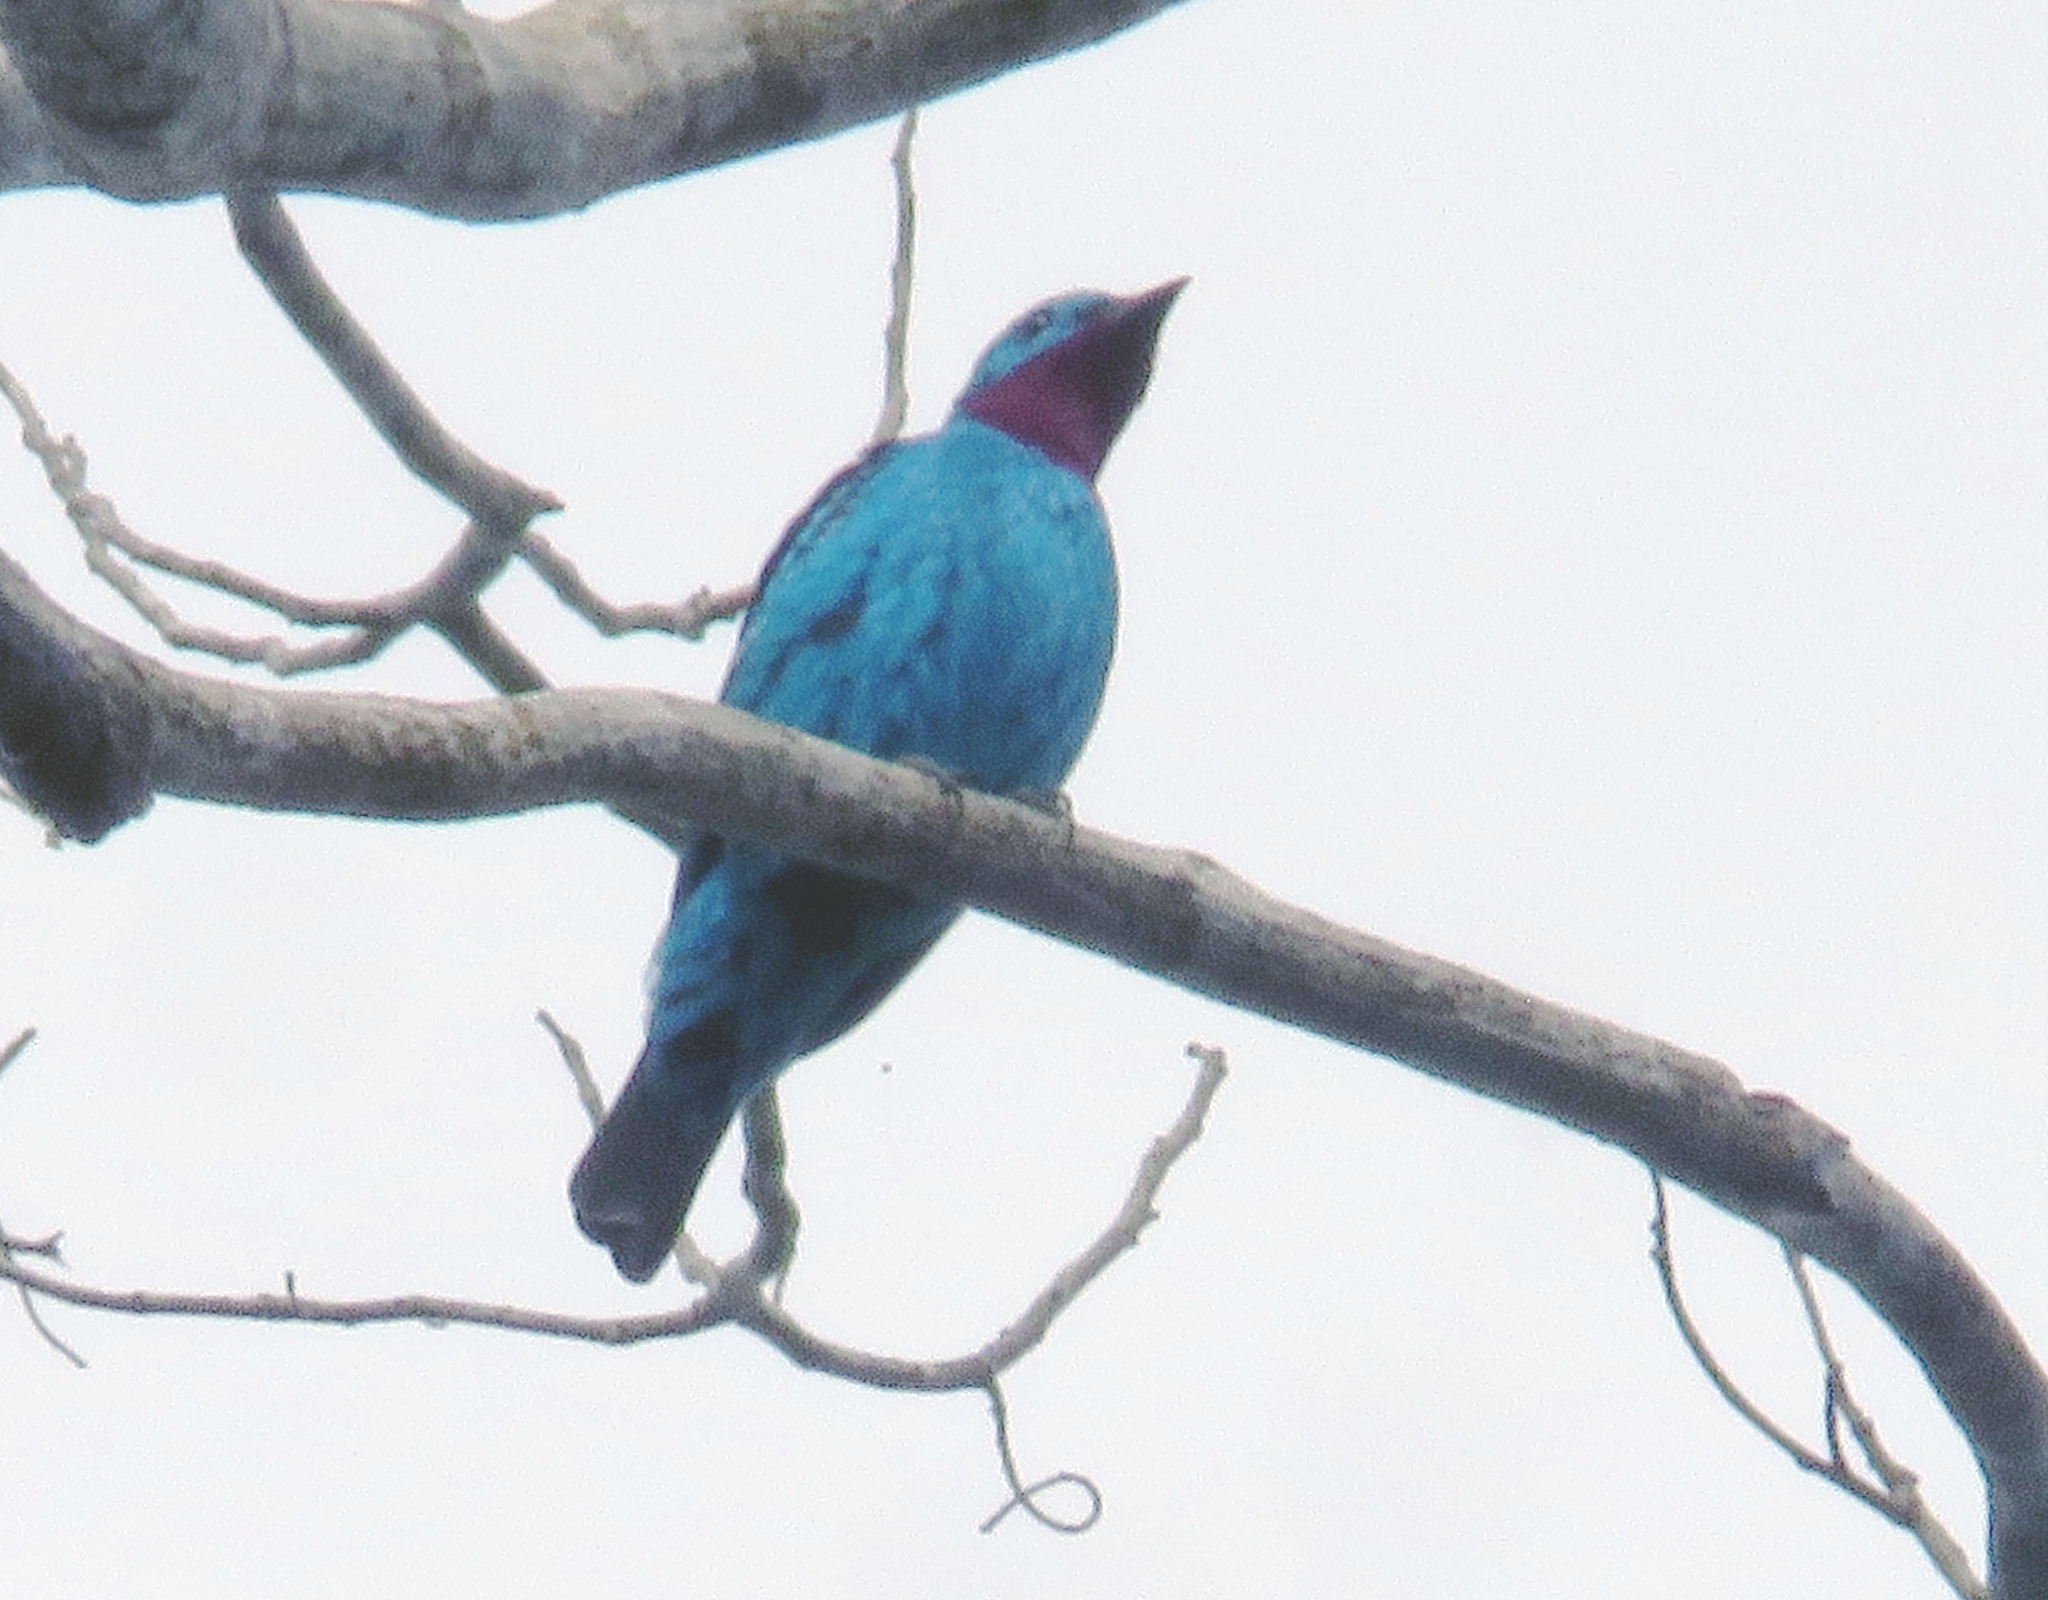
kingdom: Animalia
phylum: Chordata
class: Aves
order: Passeriformes
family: Cotingidae
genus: Cotinga
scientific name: Cotinga cayana
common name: Spangled cotinga
